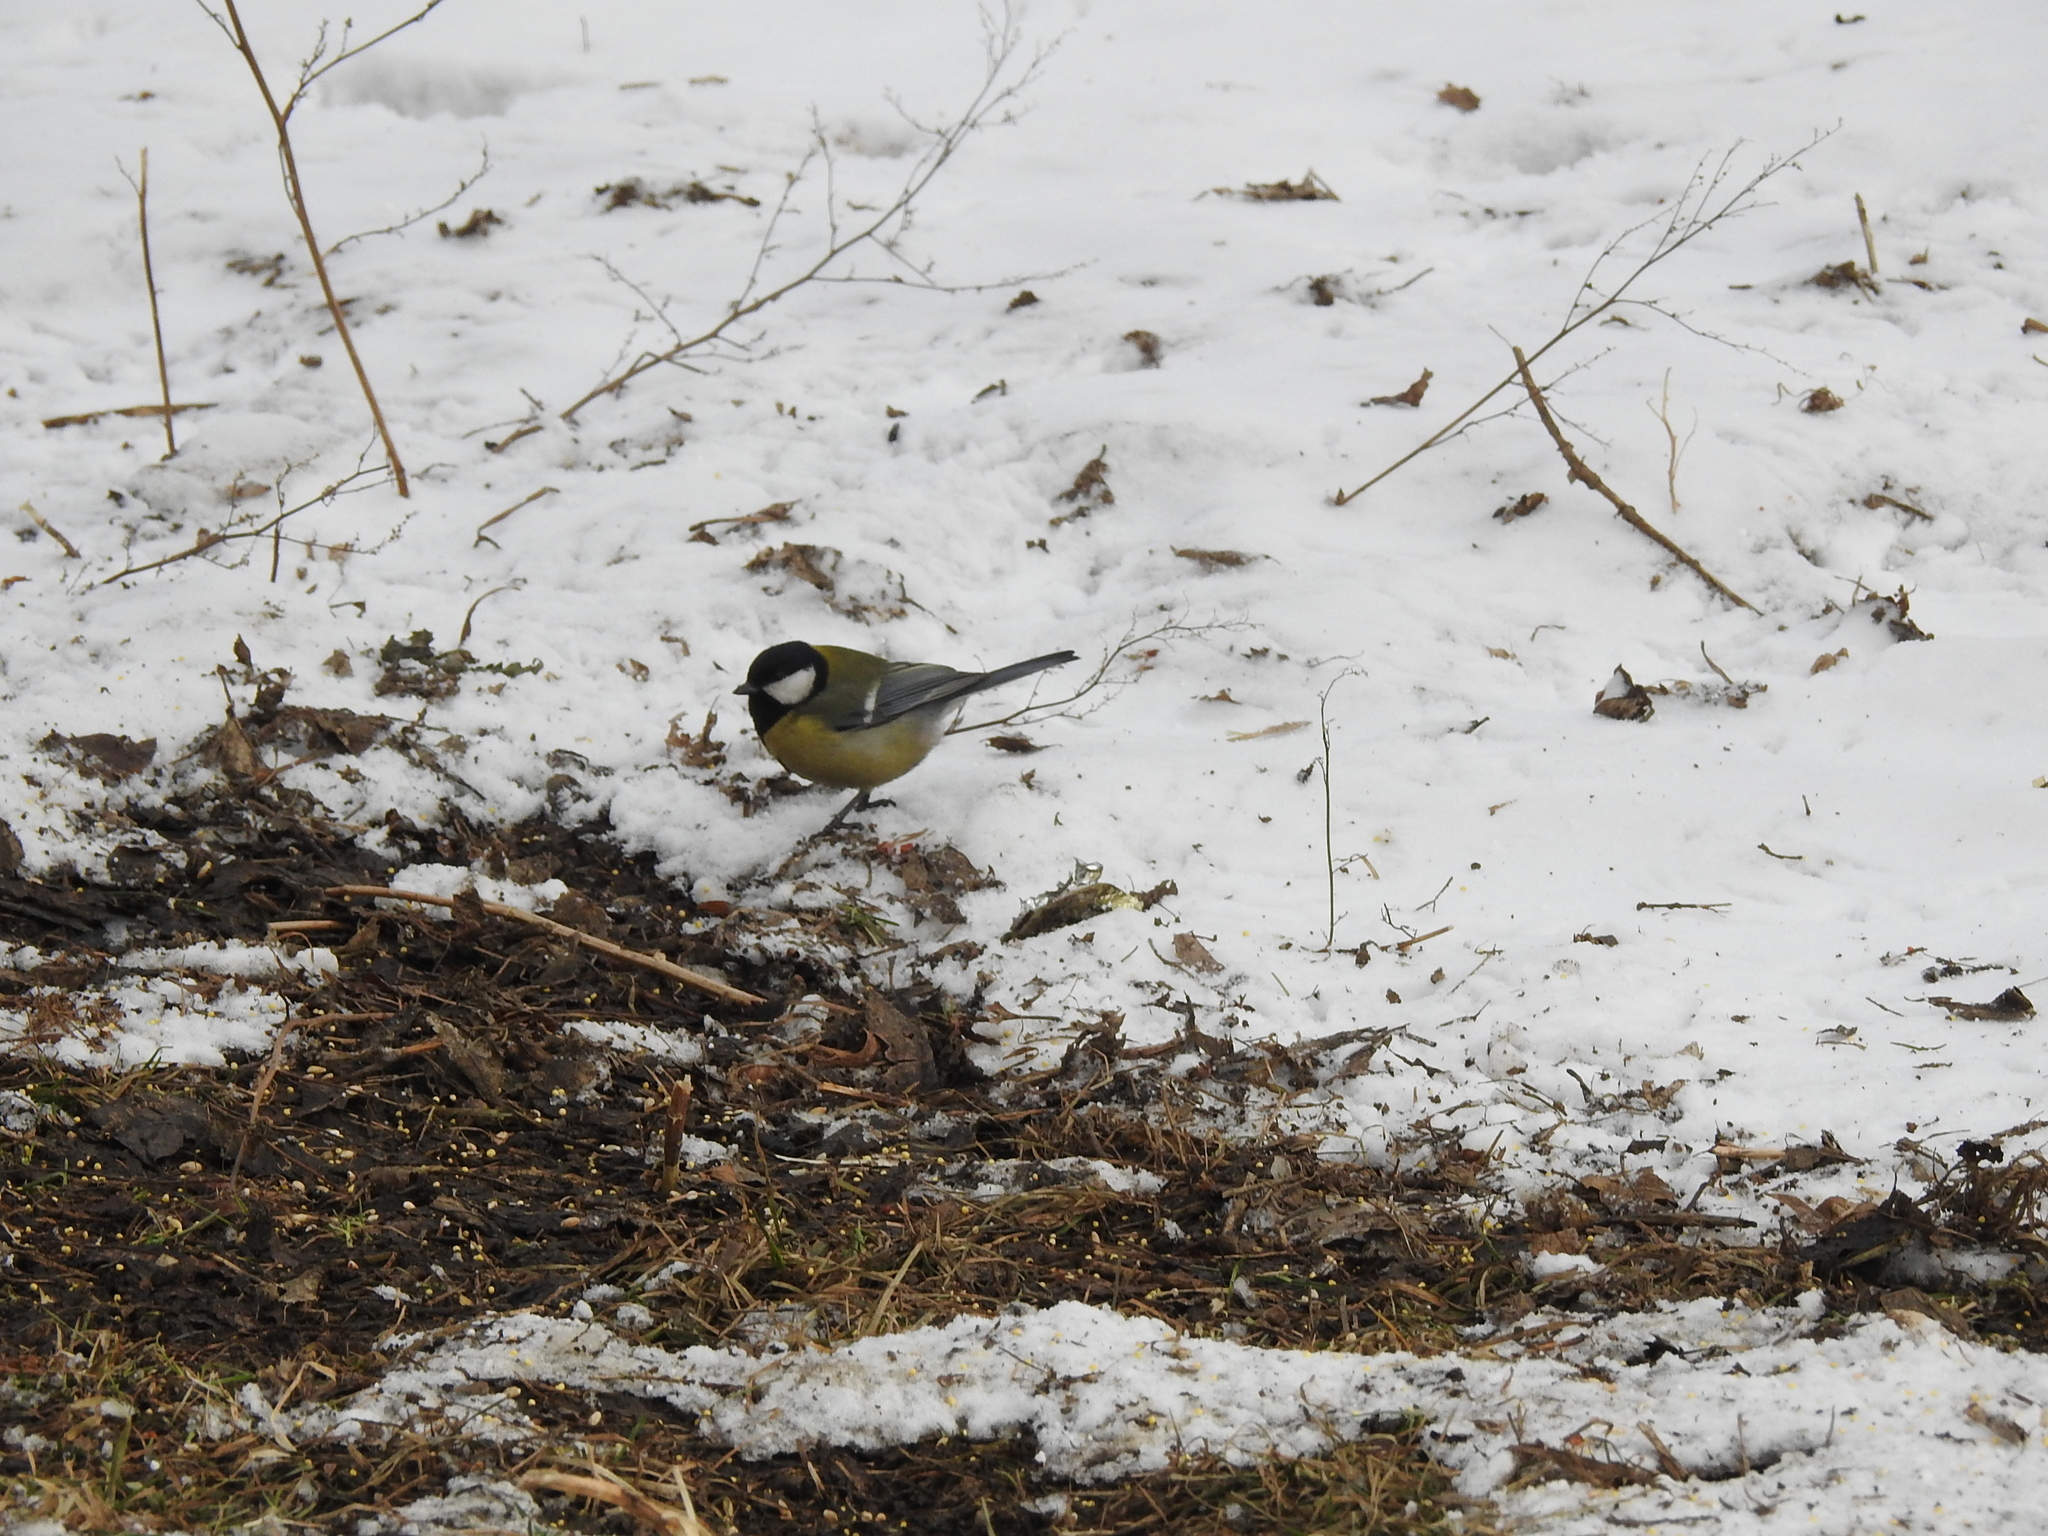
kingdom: Animalia
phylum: Chordata
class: Aves
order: Passeriformes
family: Paridae
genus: Parus
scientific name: Parus major
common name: Great tit
